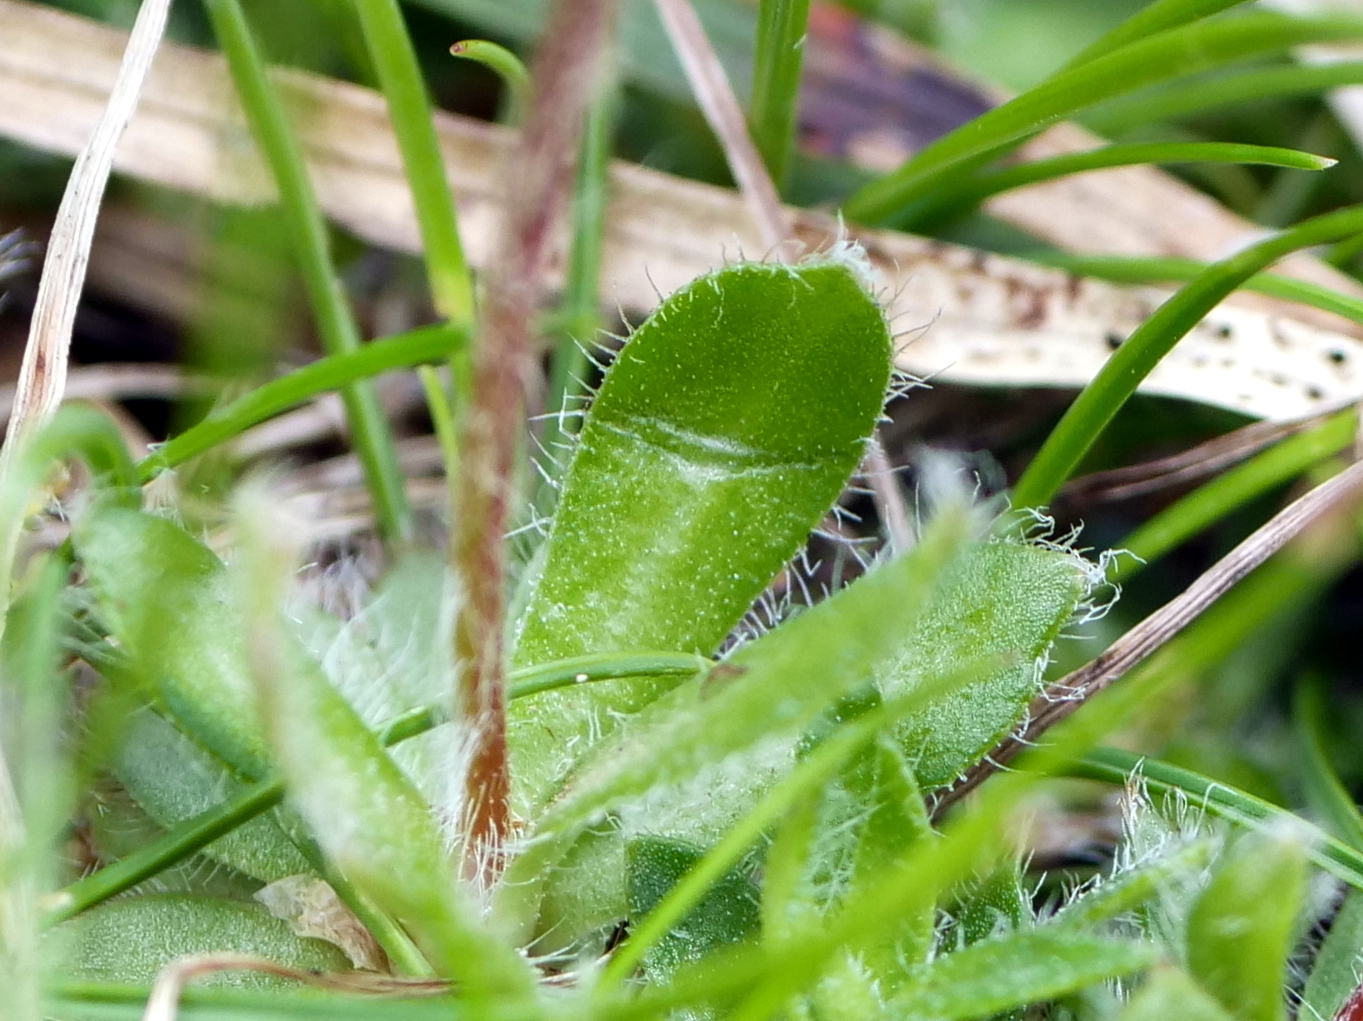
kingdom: Plantae
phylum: Tracheophyta
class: Magnoliopsida
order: Ericales
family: Primulaceae
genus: Androsace
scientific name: Androsace chamaejasme
